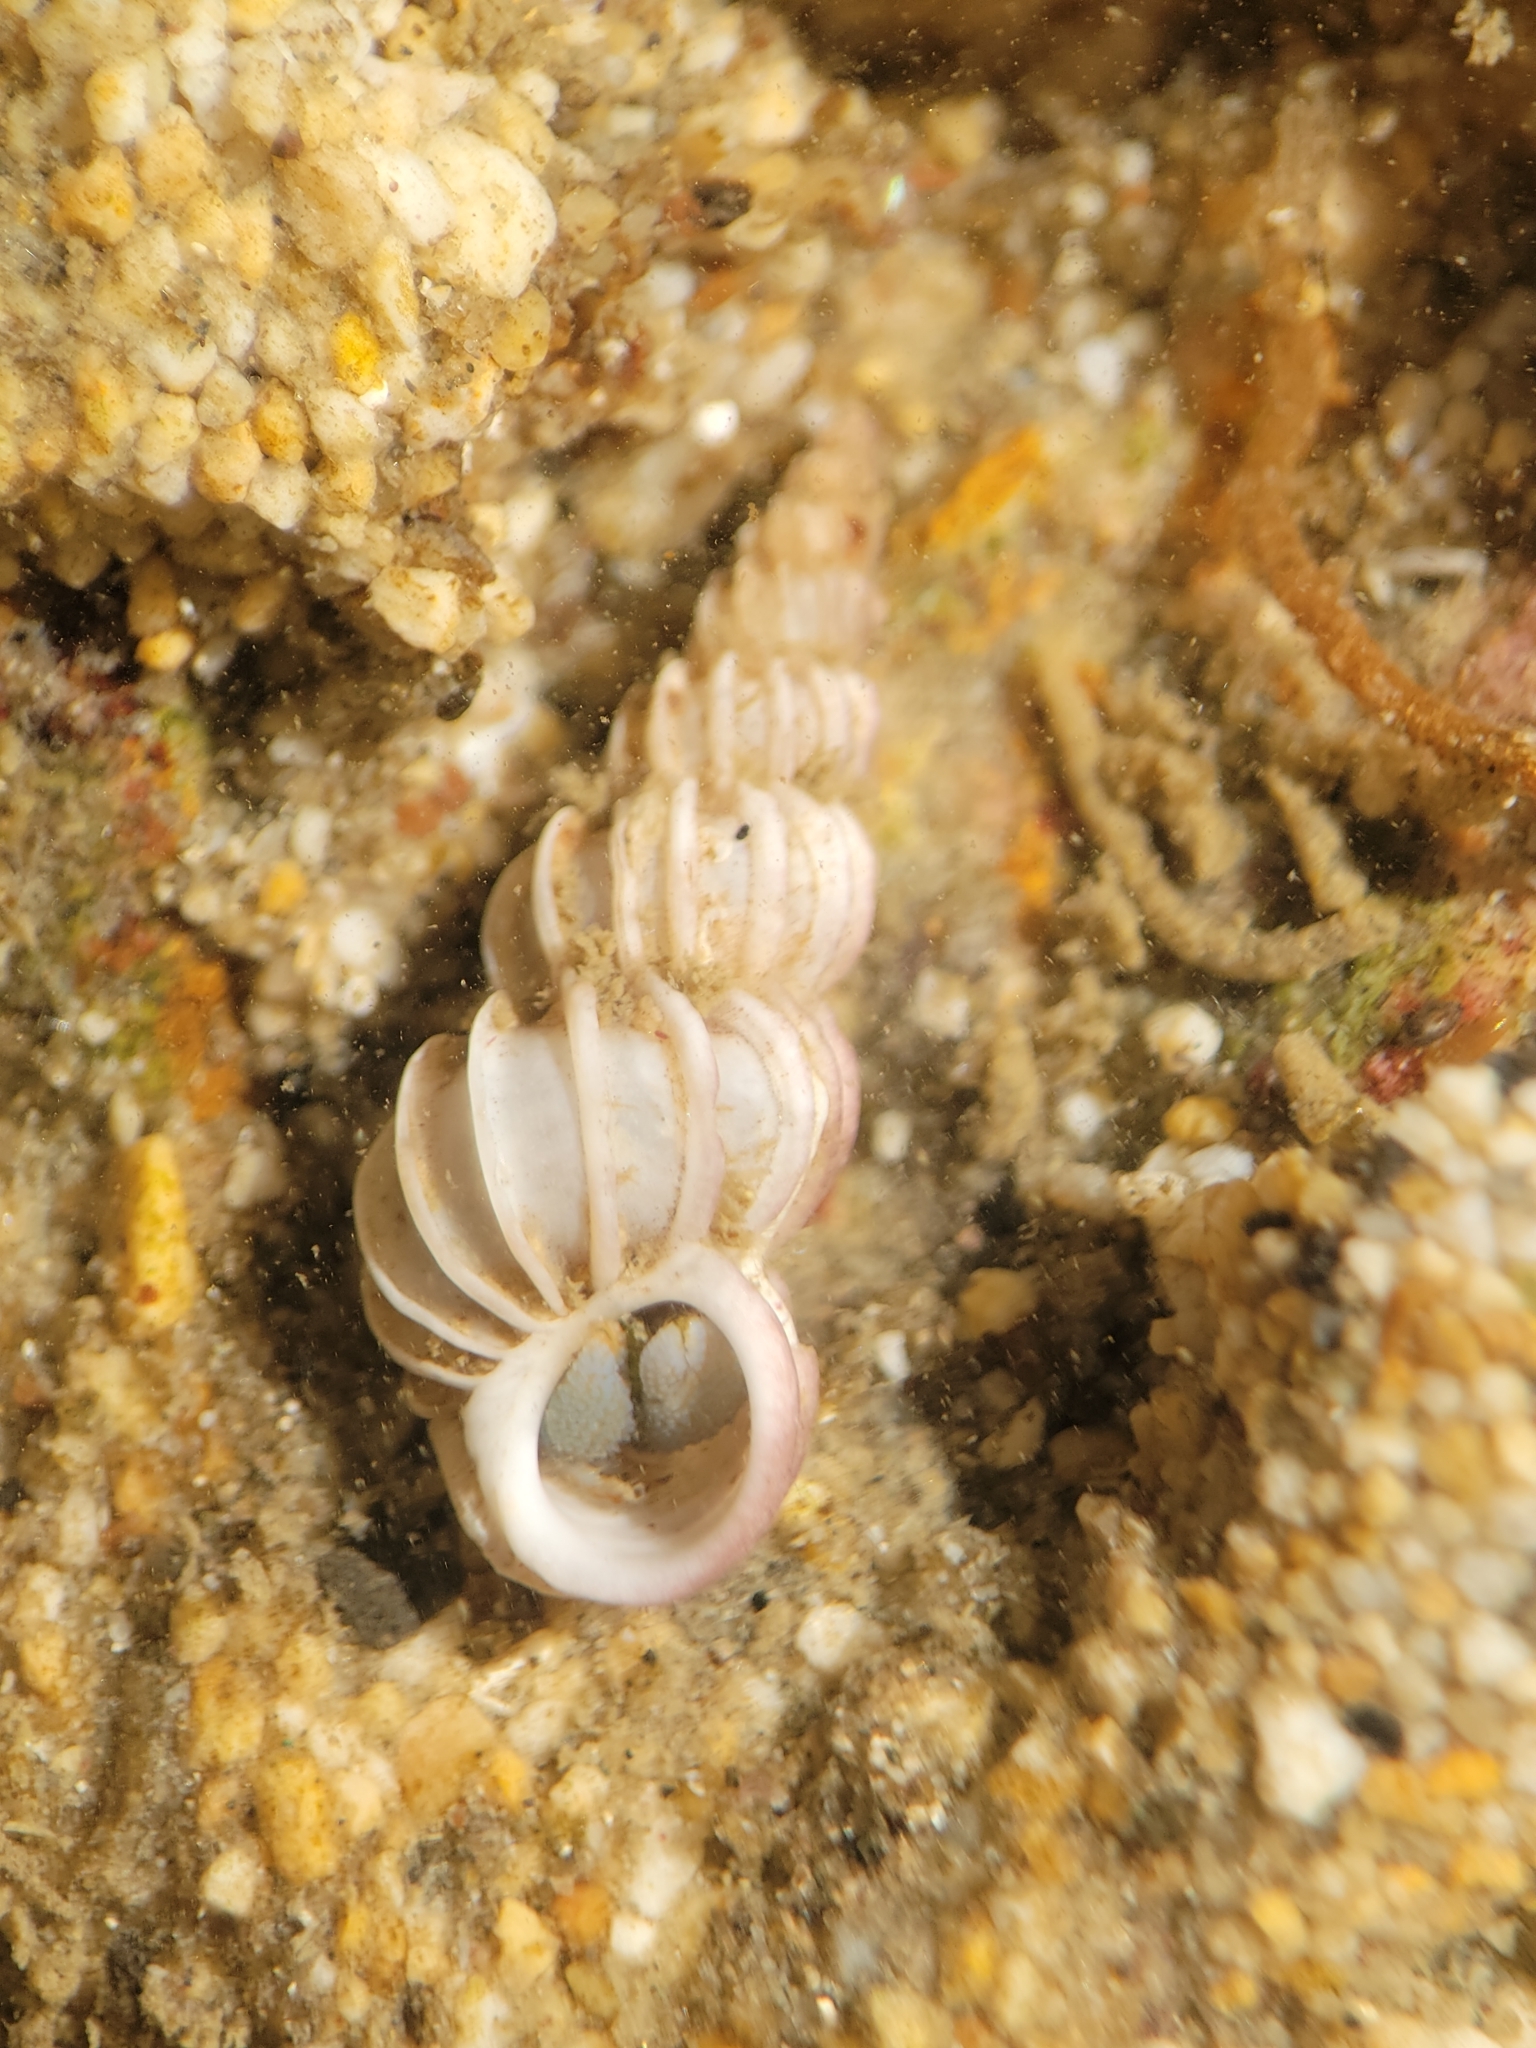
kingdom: Animalia
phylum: Mollusca
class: Gastropoda
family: Epitoniidae
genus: Epitonium
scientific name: Epitonium tinctum
